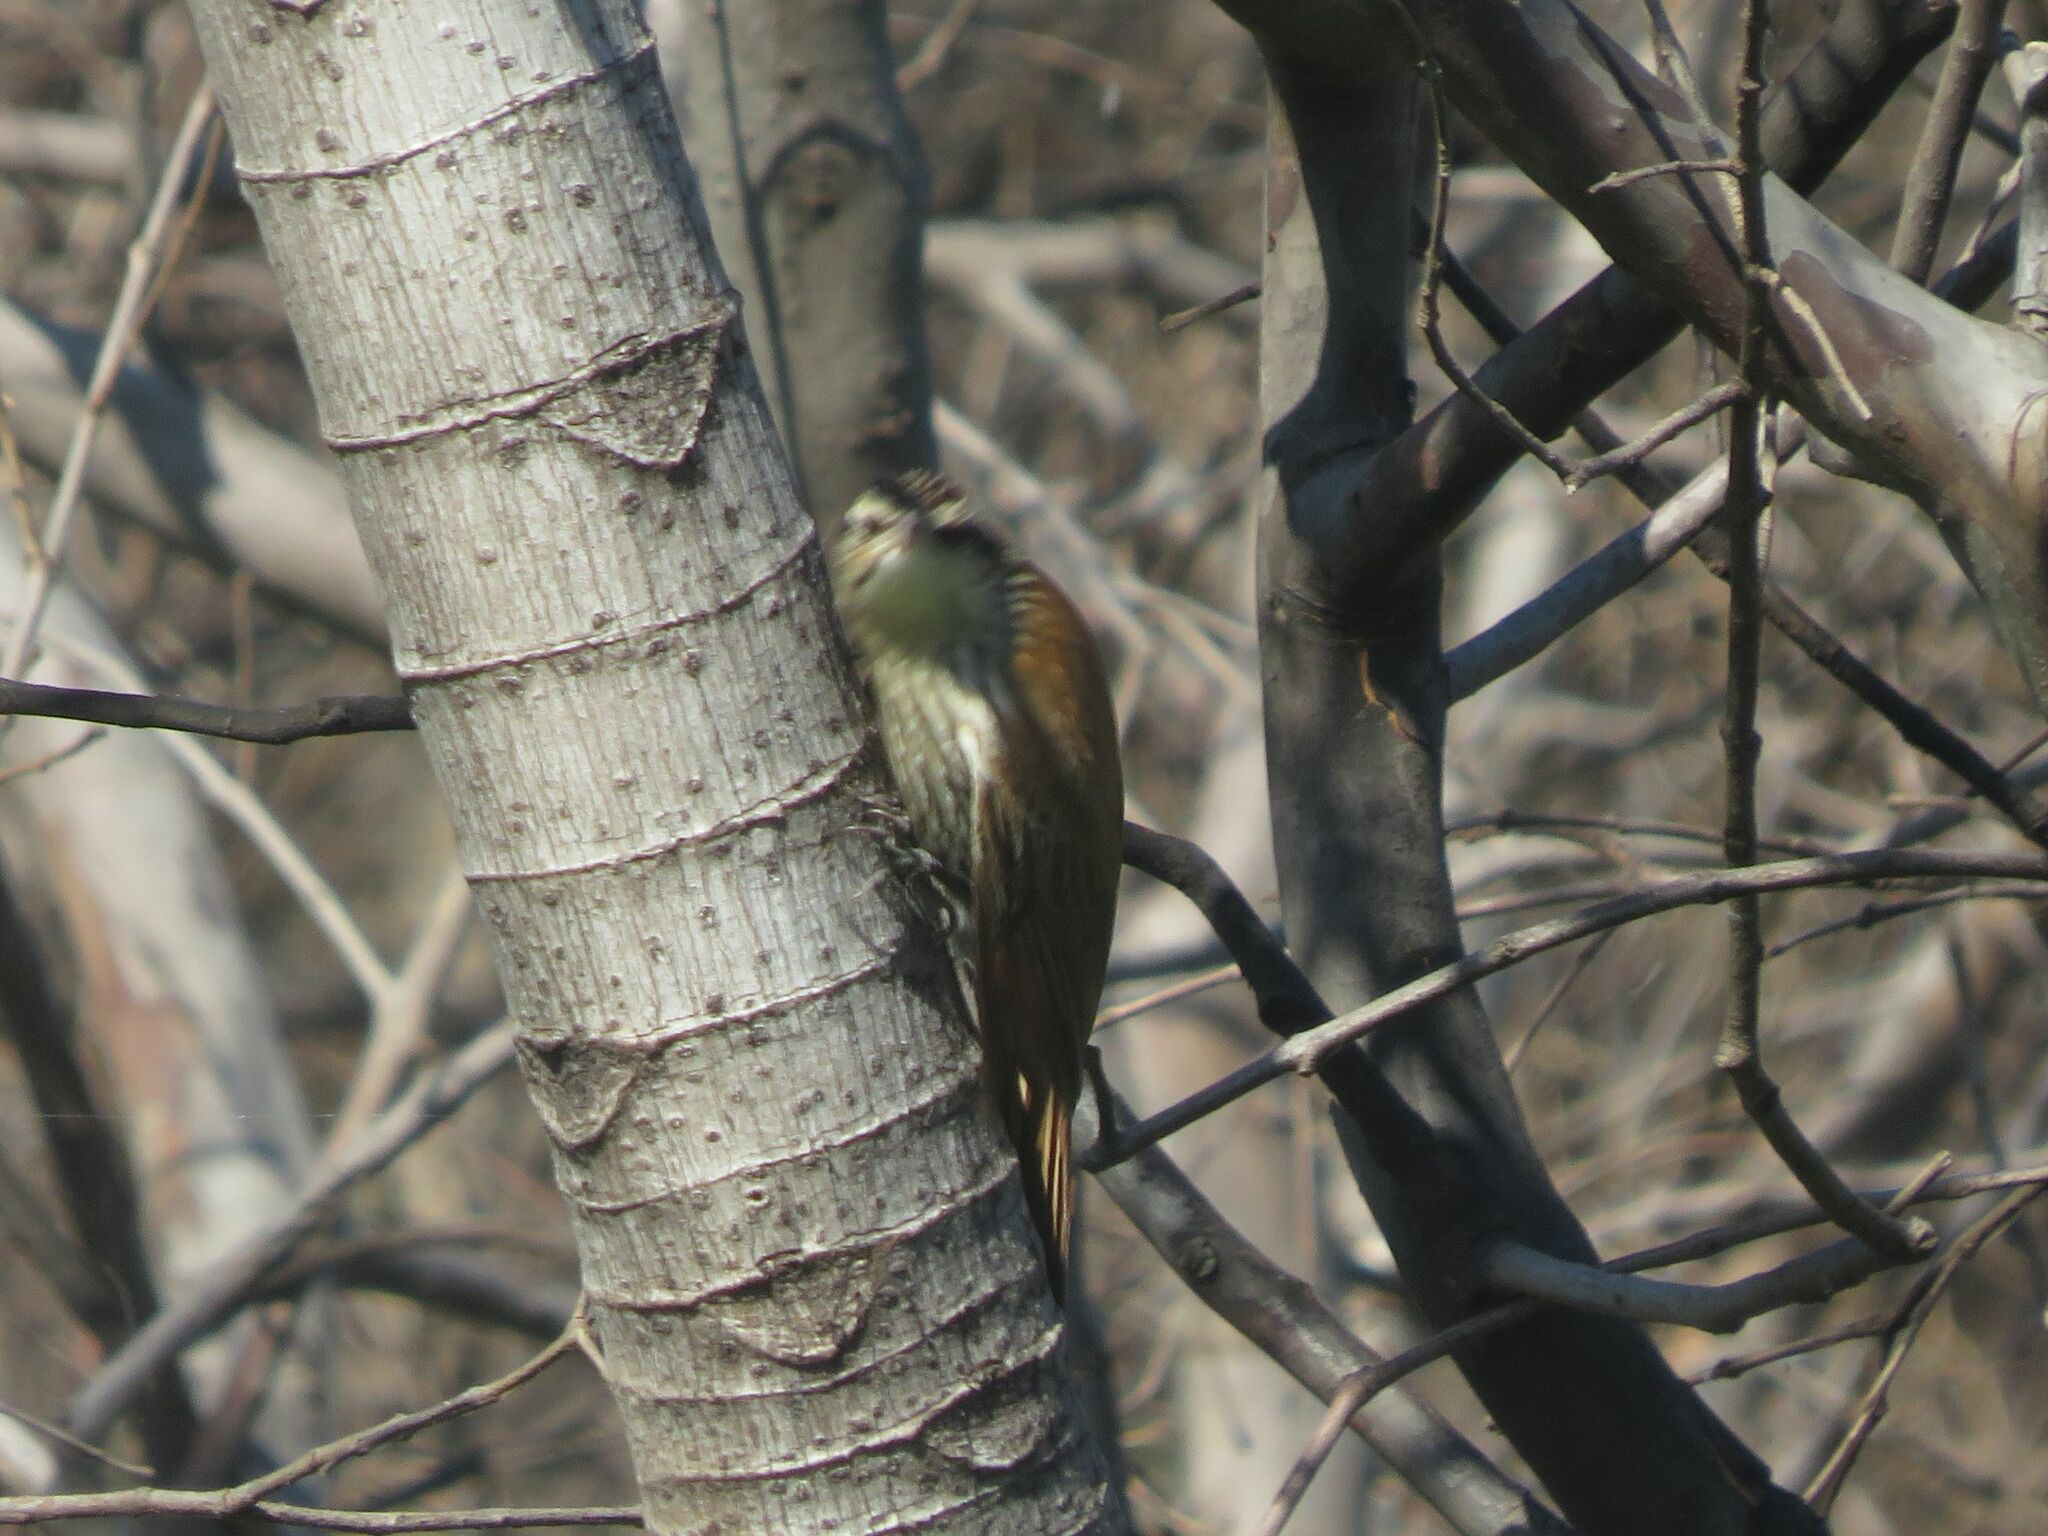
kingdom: Animalia
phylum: Chordata
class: Aves
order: Passeriformes
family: Furnariidae
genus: Lepidocolaptes
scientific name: Lepidocolaptes angustirostris
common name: Narrow-billed woodcreeper
